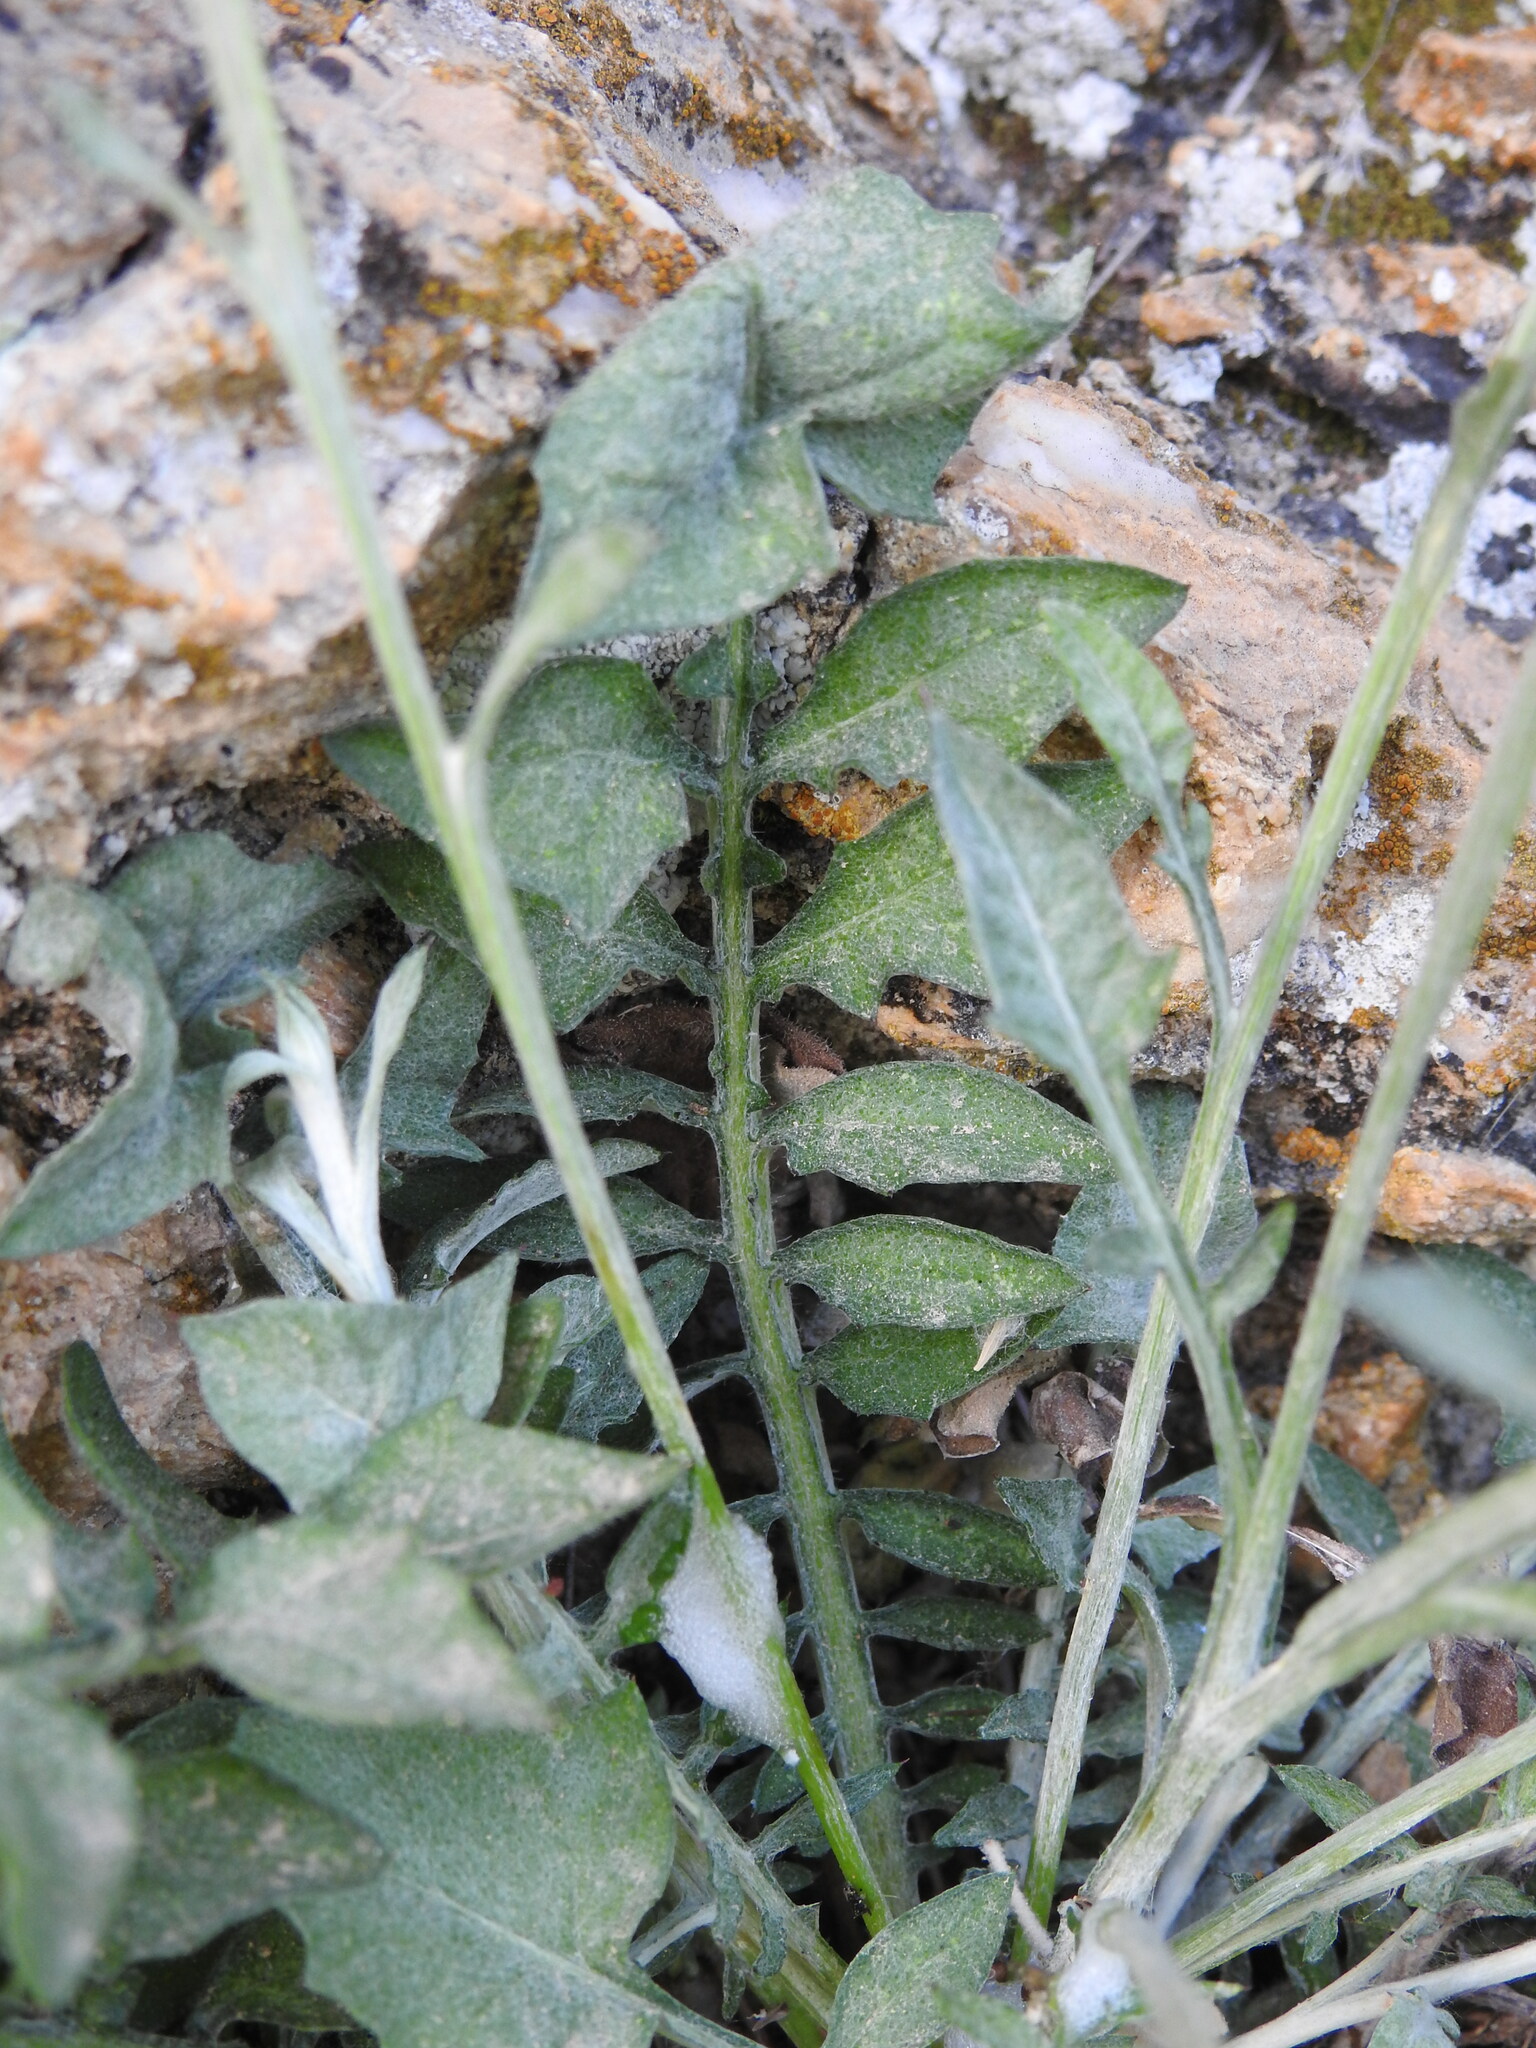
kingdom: Plantae
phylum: Tracheophyta
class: Magnoliopsida
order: Asterales
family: Asteraceae
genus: Centaurea
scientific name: Centaurea idaea
